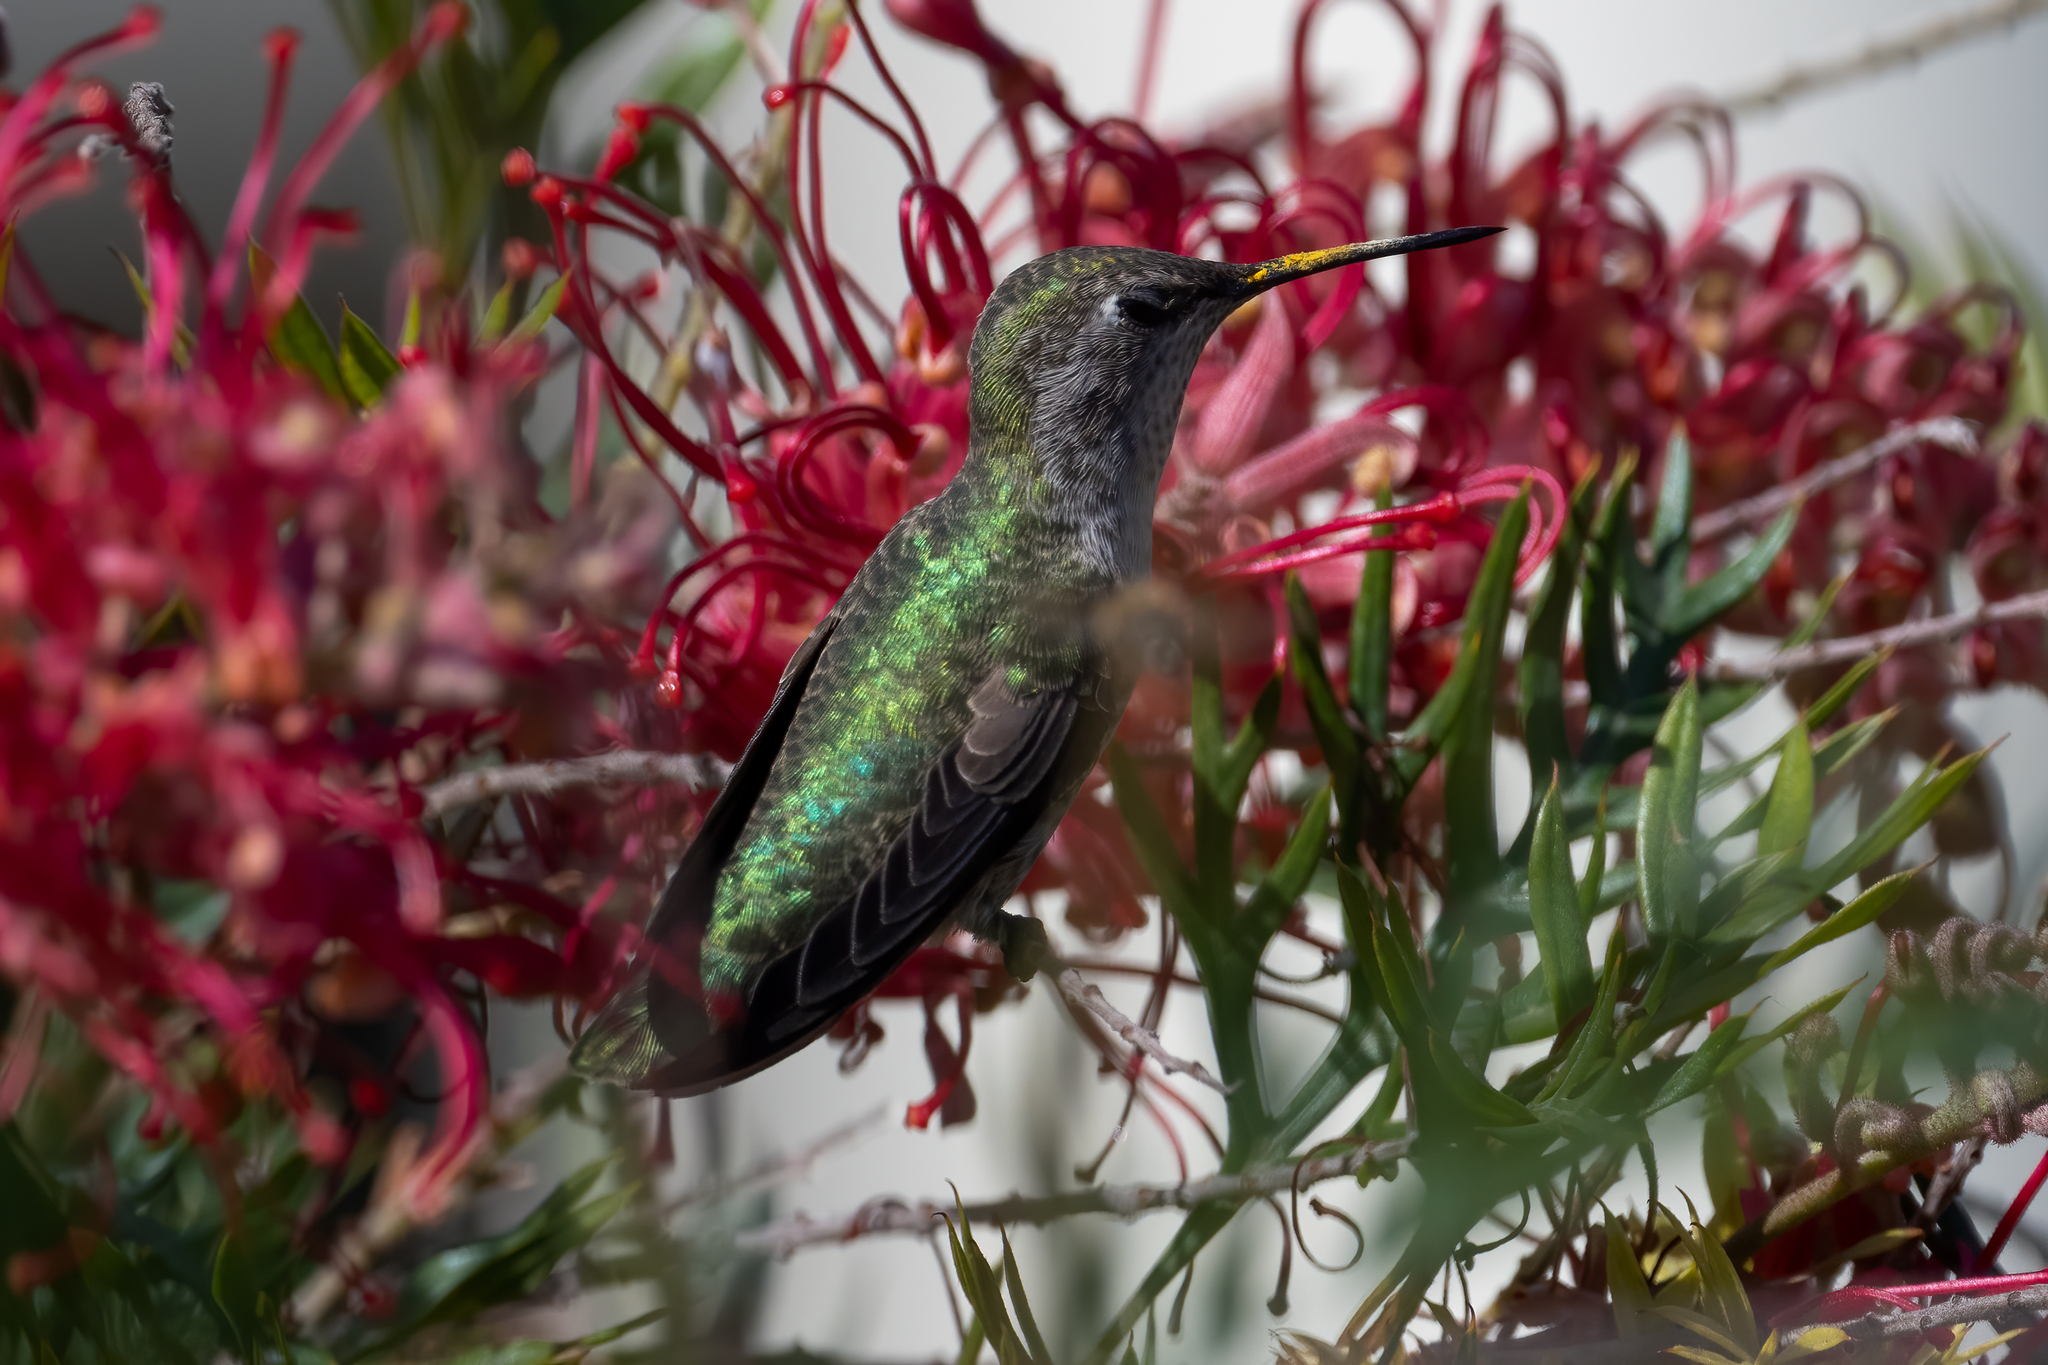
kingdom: Animalia
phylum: Chordata
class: Aves
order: Apodiformes
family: Trochilidae
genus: Calypte
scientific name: Calypte anna
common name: Anna's hummingbird
